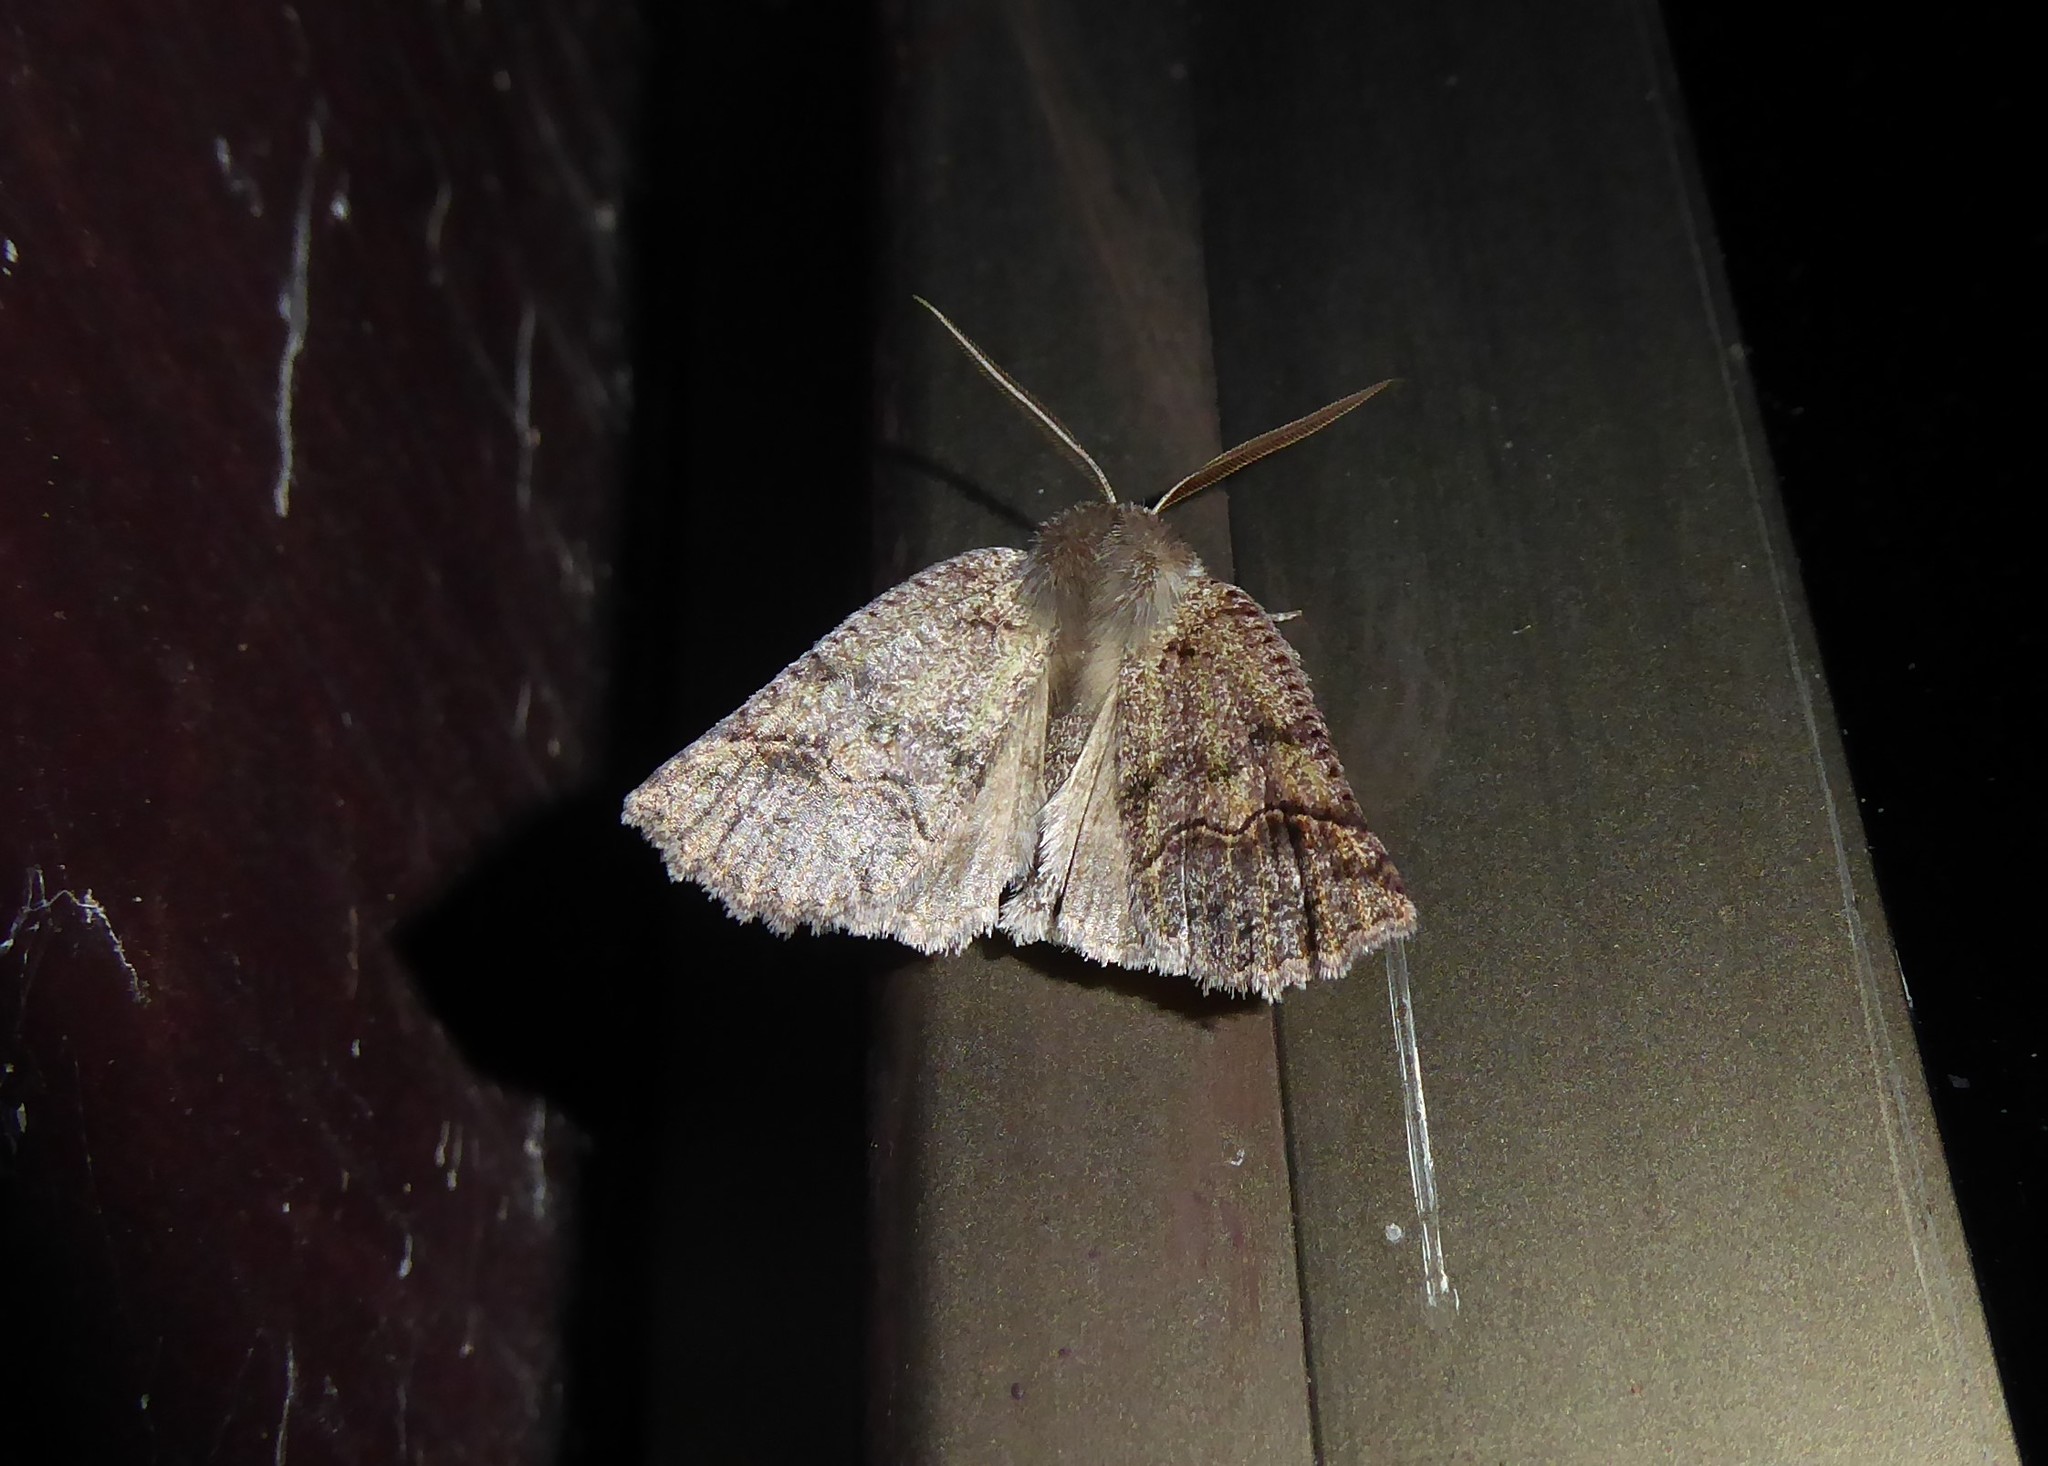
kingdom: Animalia
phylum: Arthropoda
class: Insecta
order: Lepidoptera
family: Geometridae
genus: Declana
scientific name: Declana floccosa
